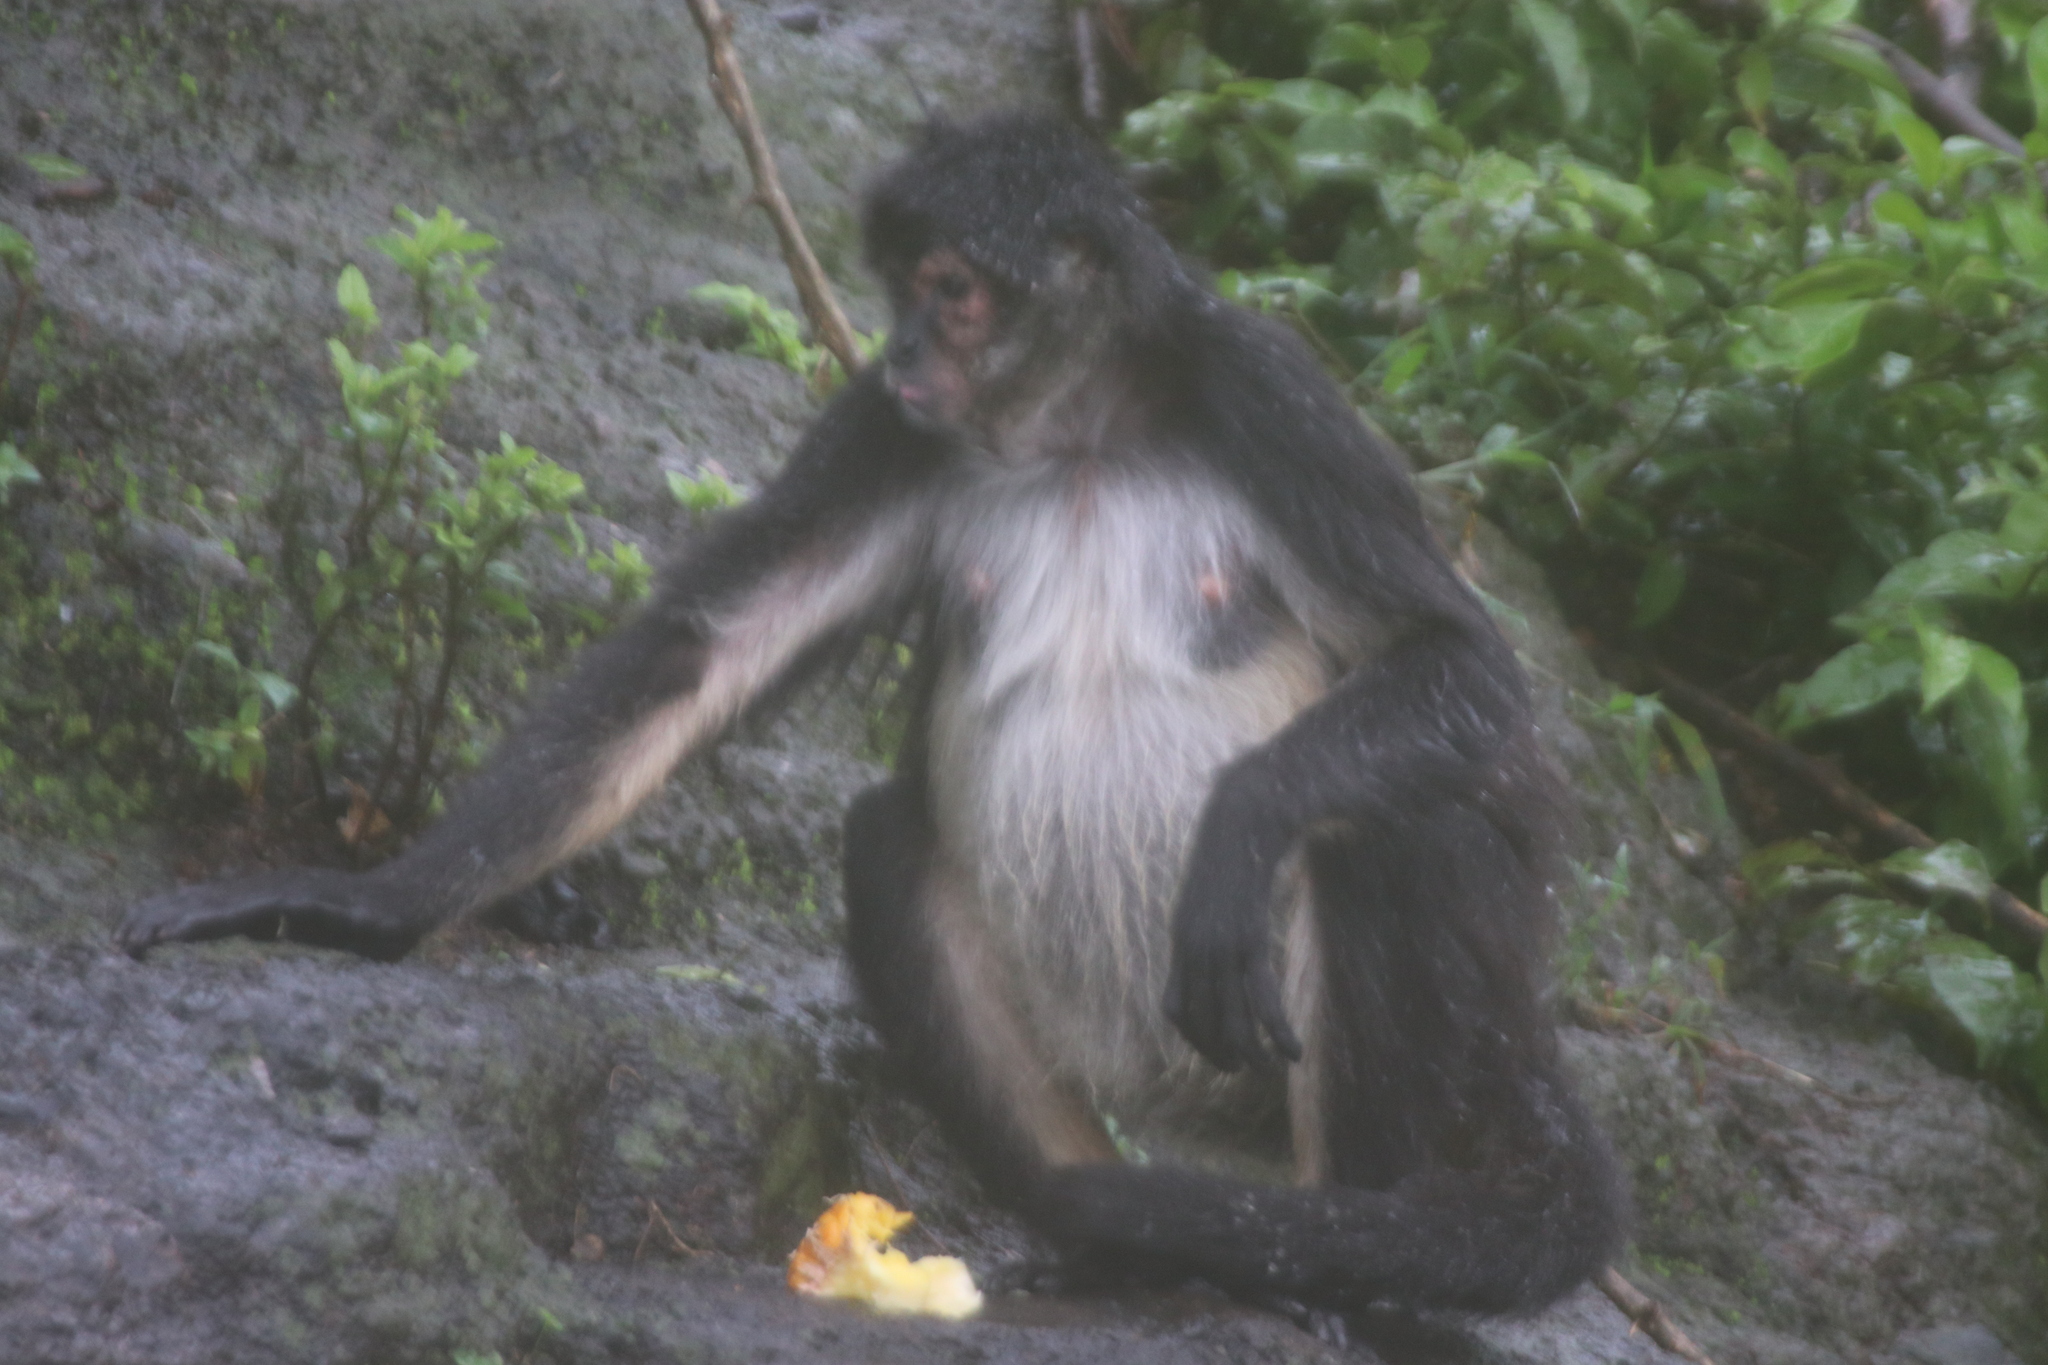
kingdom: Animalia
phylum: Chordata
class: Mammalia
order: Primates
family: Atelidae
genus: Ateles
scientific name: Ateles geoffroyi
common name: Black-handed spider monkey
